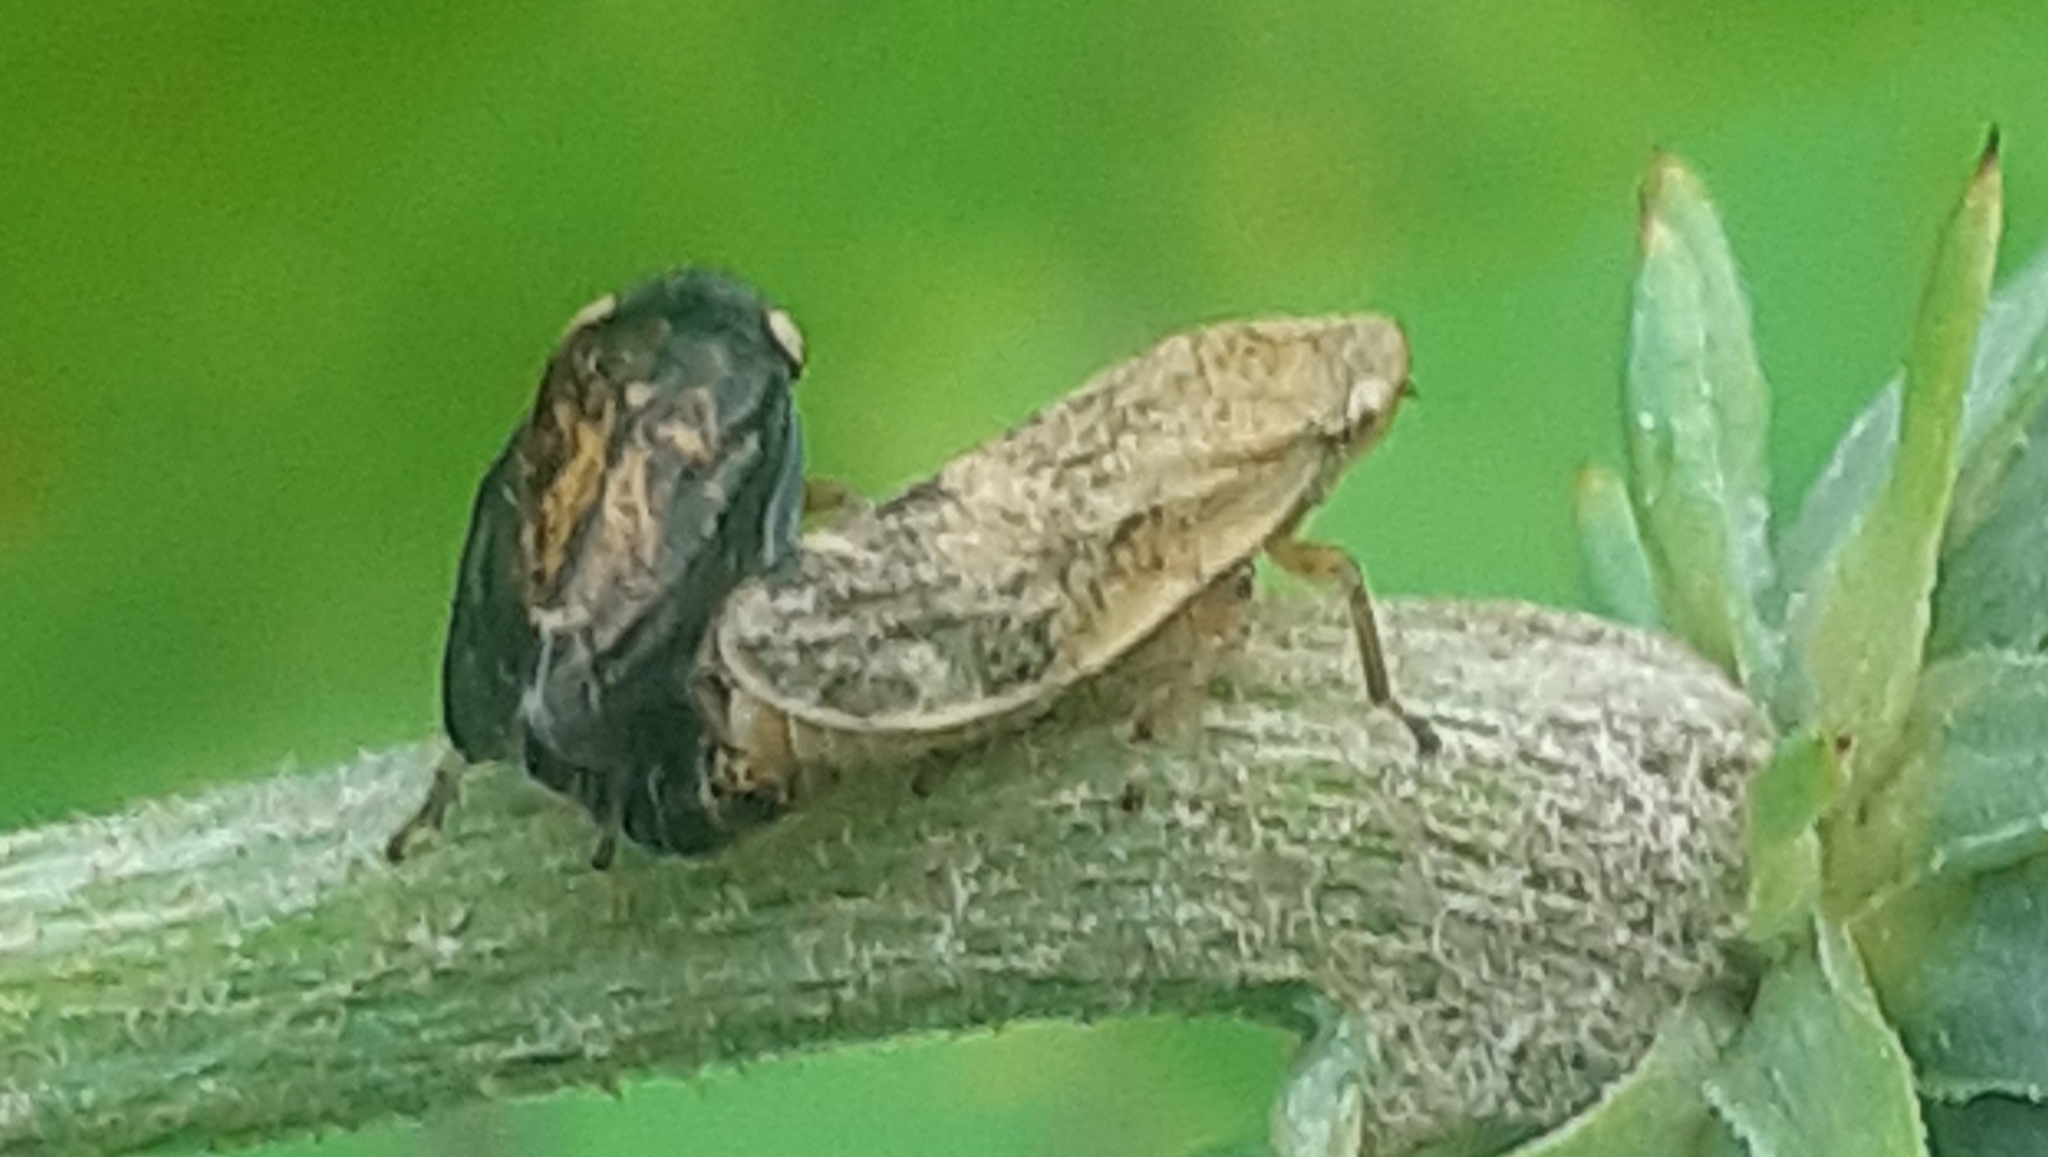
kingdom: Animalia
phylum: Arthropoda
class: Insecta
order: Hemiptera
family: Aphrophoridae
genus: Philaenus
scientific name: Philaenus spumarius
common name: Meadow spittlebug
